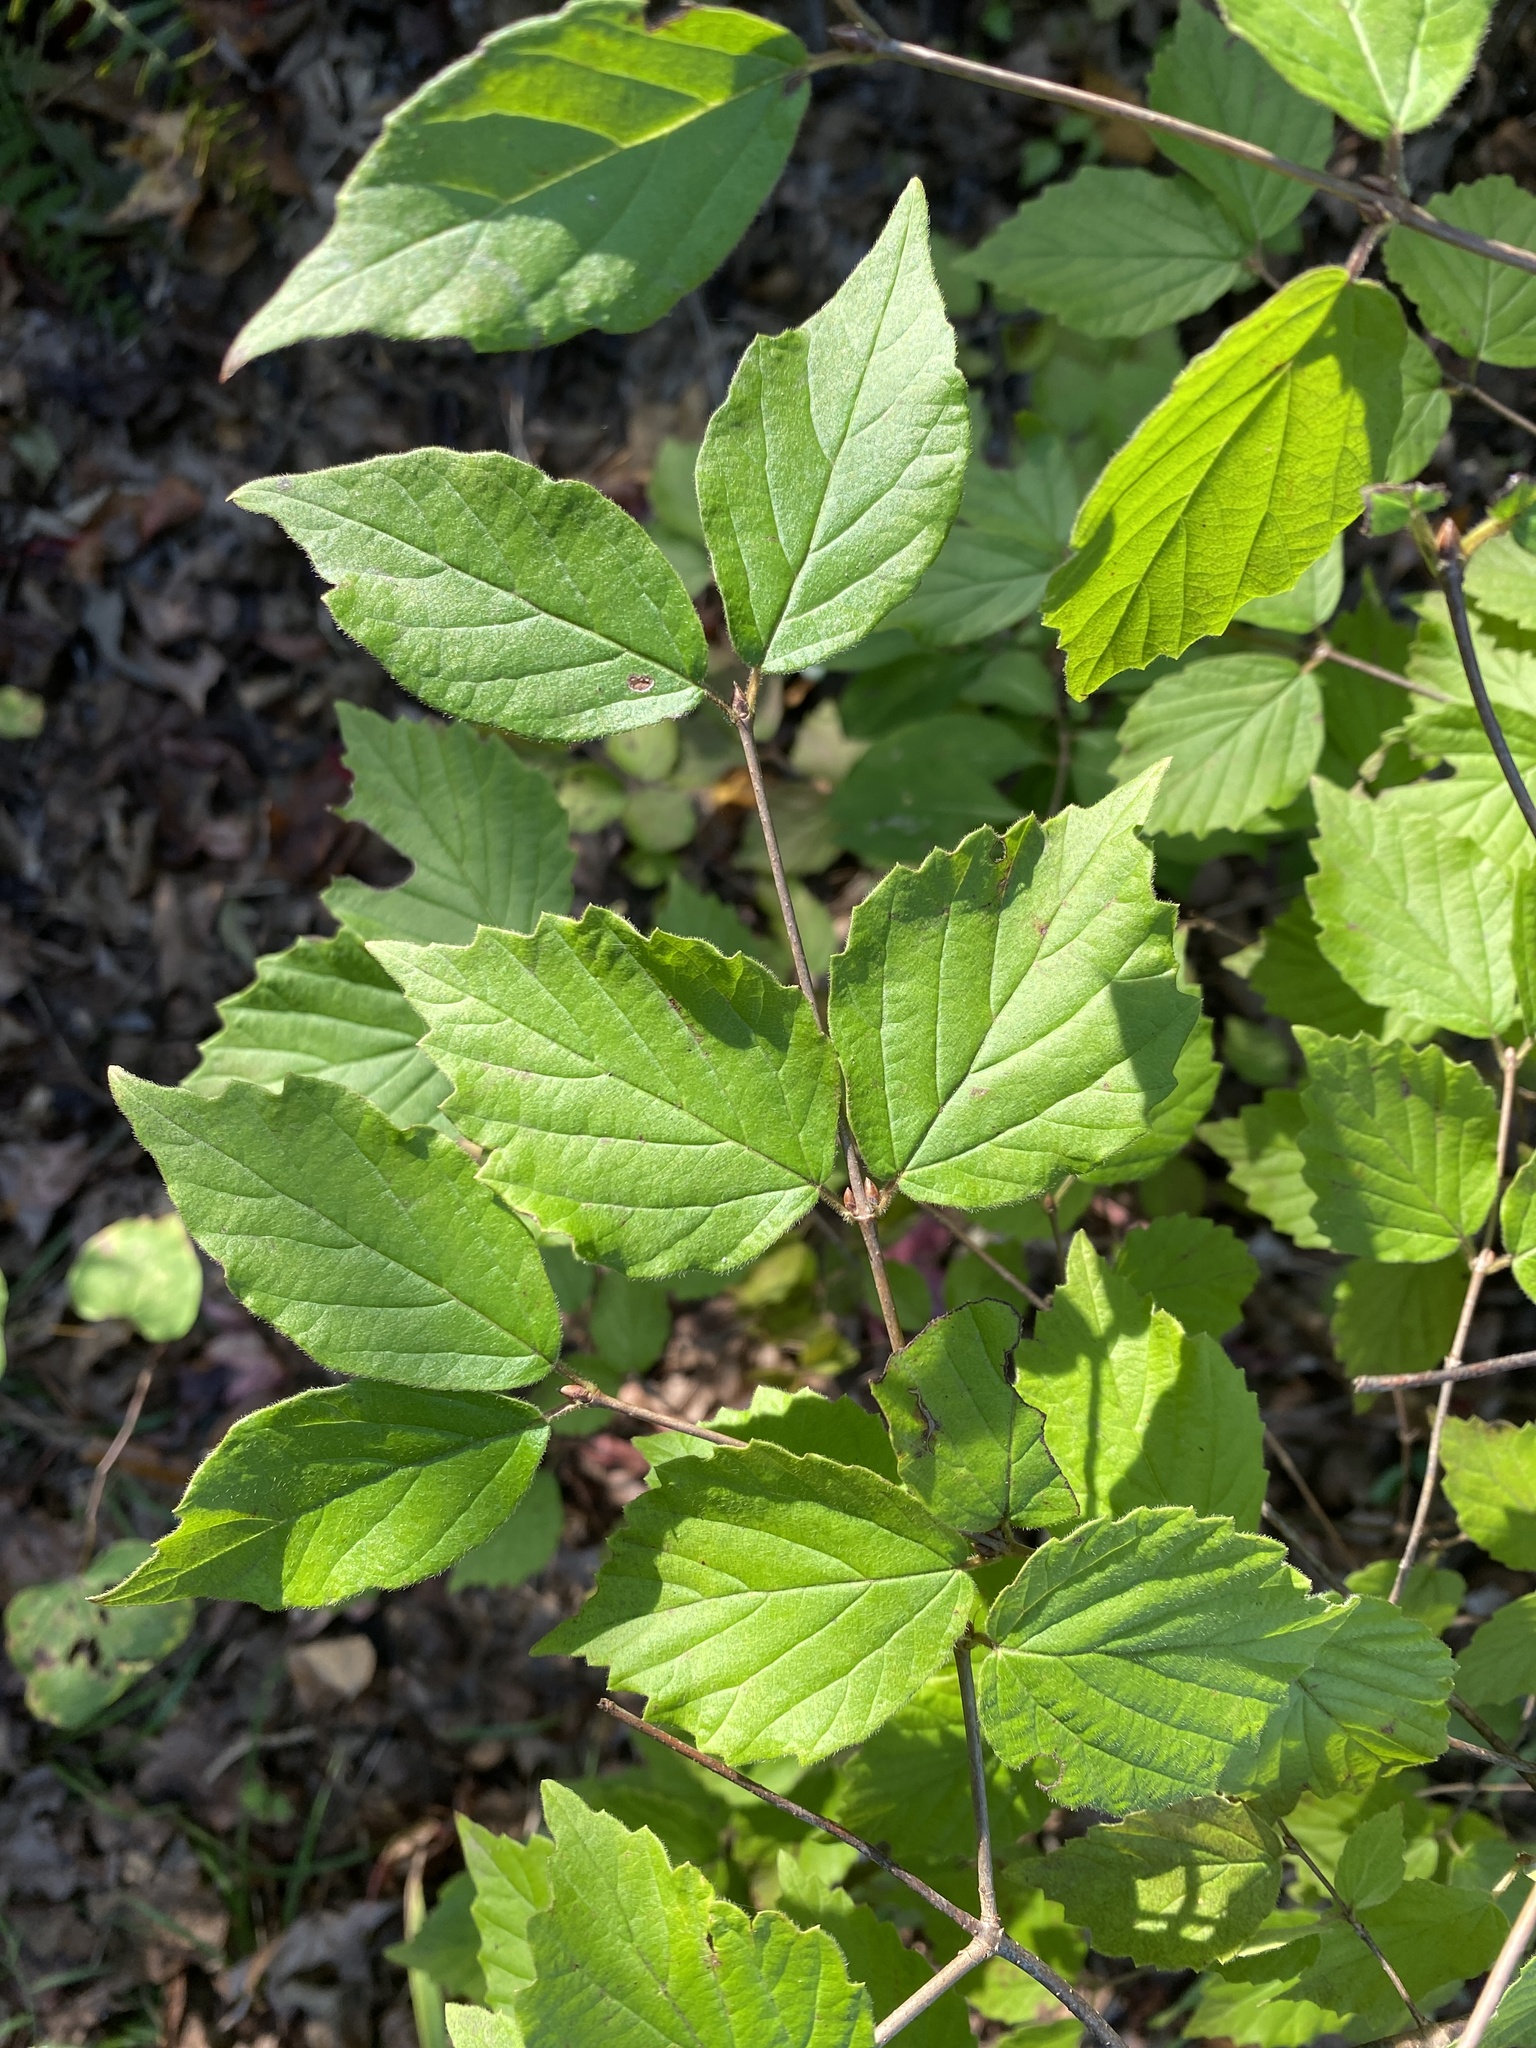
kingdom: Plantae
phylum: Tracheophyta
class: Magnoliopsida
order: Dipsacales
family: Viburnaceae
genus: Viburnum
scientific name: Viburnum rafinesqueanum
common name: Downy arrow-wood
